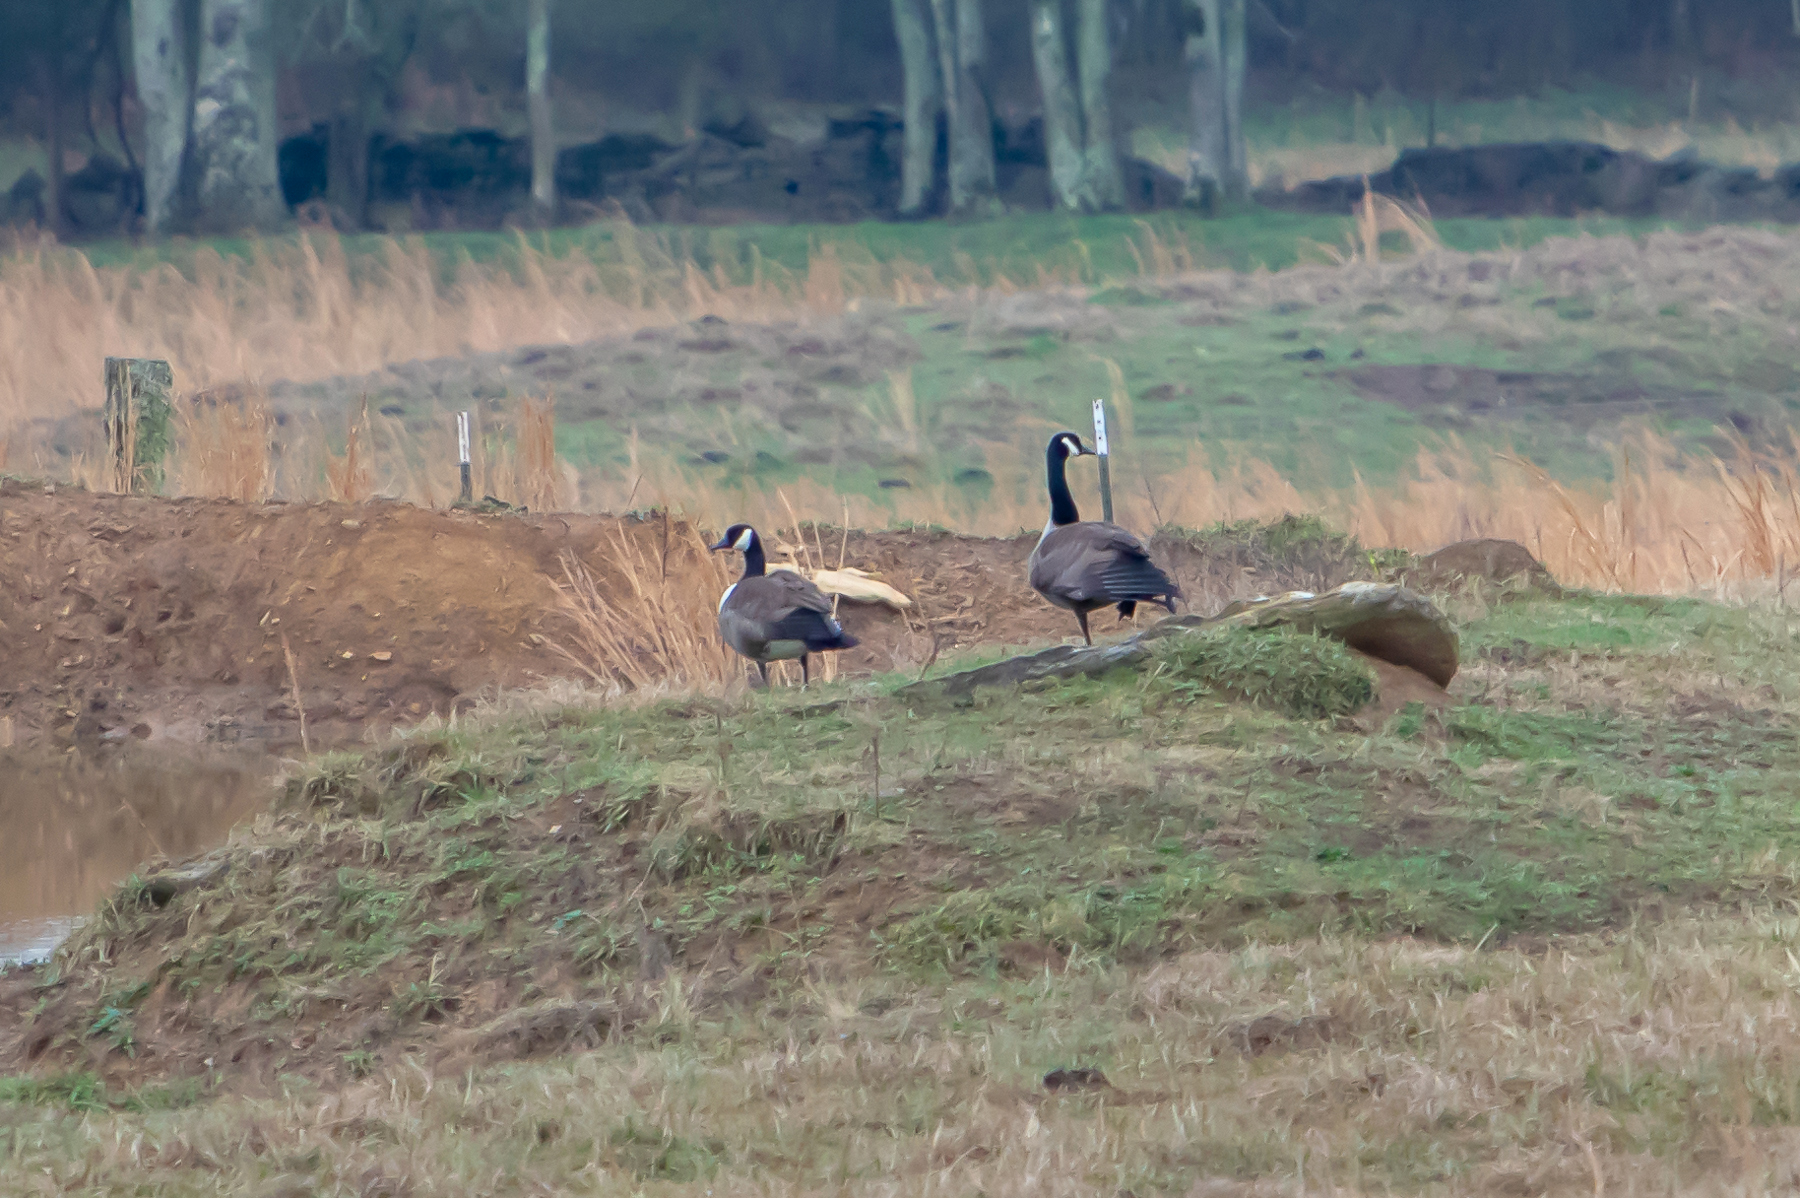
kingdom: Animalia
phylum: Chordata
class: Aves
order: Anseriformes
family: Anatidae
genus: Branta
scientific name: Branta canadensis
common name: Canada goose
